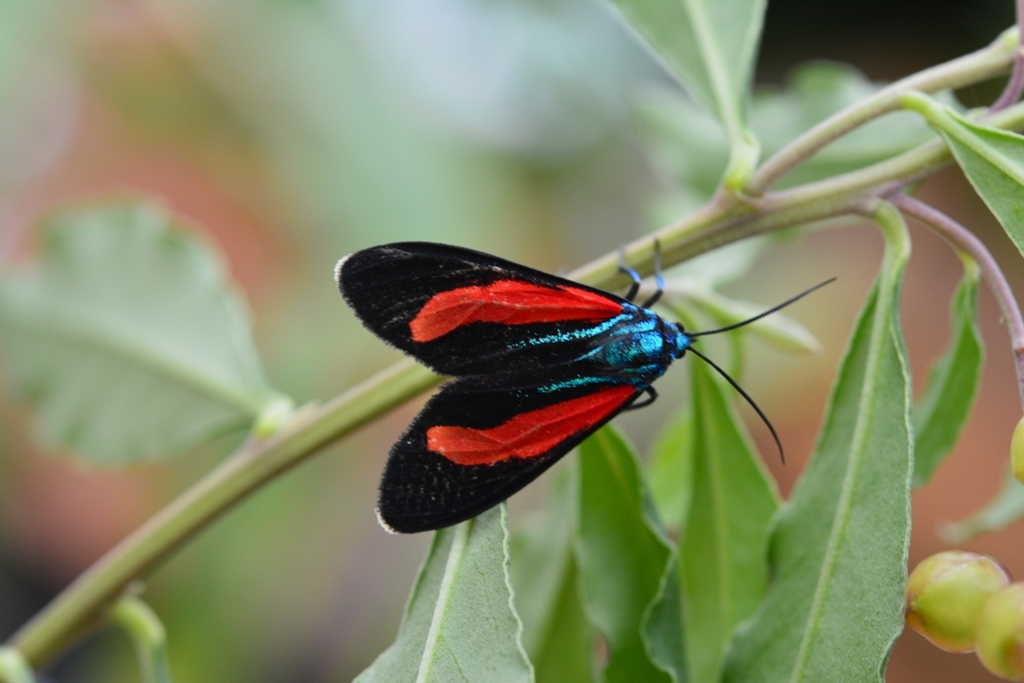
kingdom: Animalia
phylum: Arthropoda
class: Insecta
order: Lepidoptera
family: Erebidae
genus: Cyanopepla
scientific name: Cyanopepla bella
